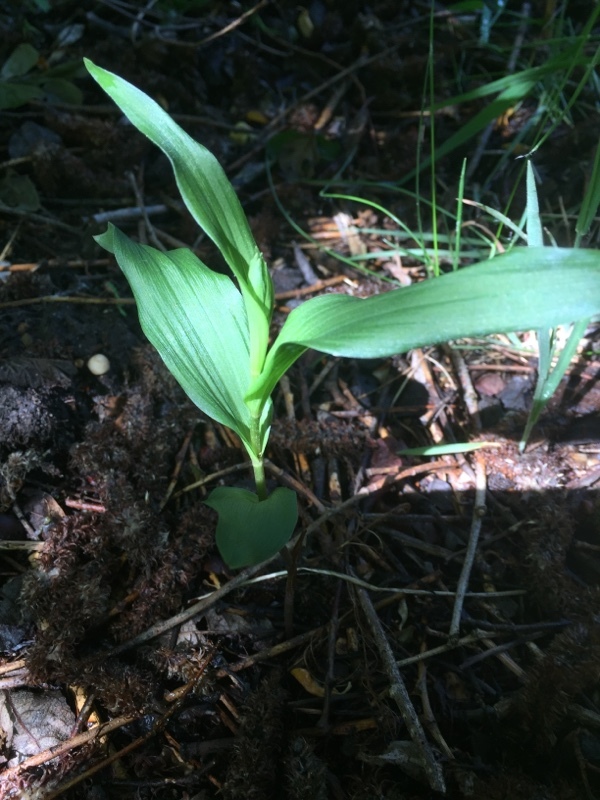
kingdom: Plantae
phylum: Tracheophyta
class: Liliopsida
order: Asparagales
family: Orchidaceae
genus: Epipactis
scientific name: Epipactis helleborine
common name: Broad-leaved helleborine
